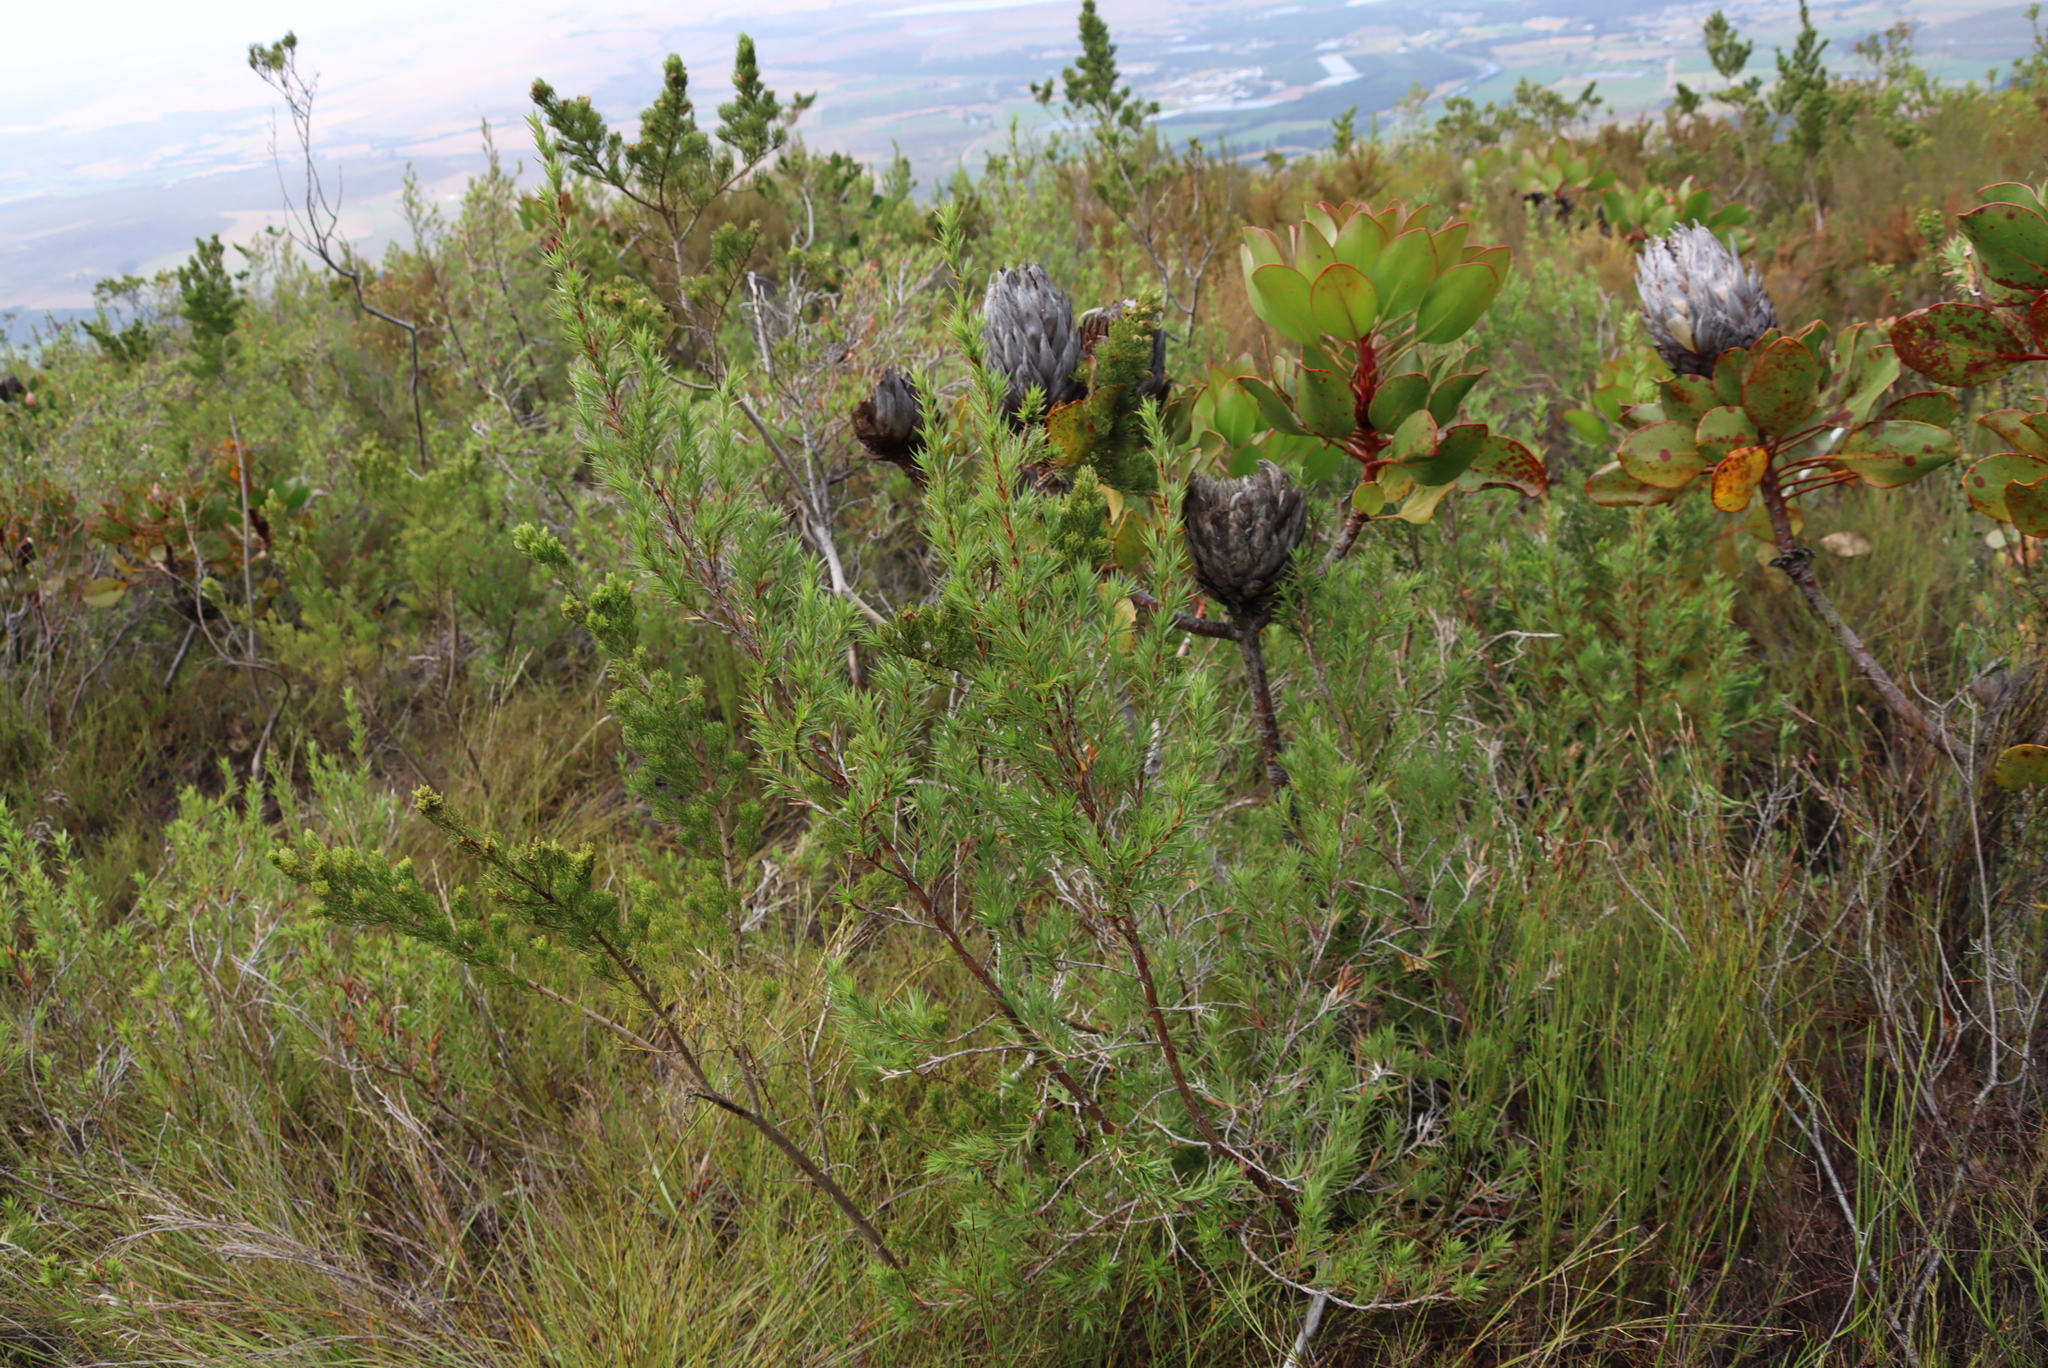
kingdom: Plantae
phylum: Tracheophyta
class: Magnoliopsida
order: Proteales
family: Proteaceae
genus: Protea
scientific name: Protea cynaroides
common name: King protea
